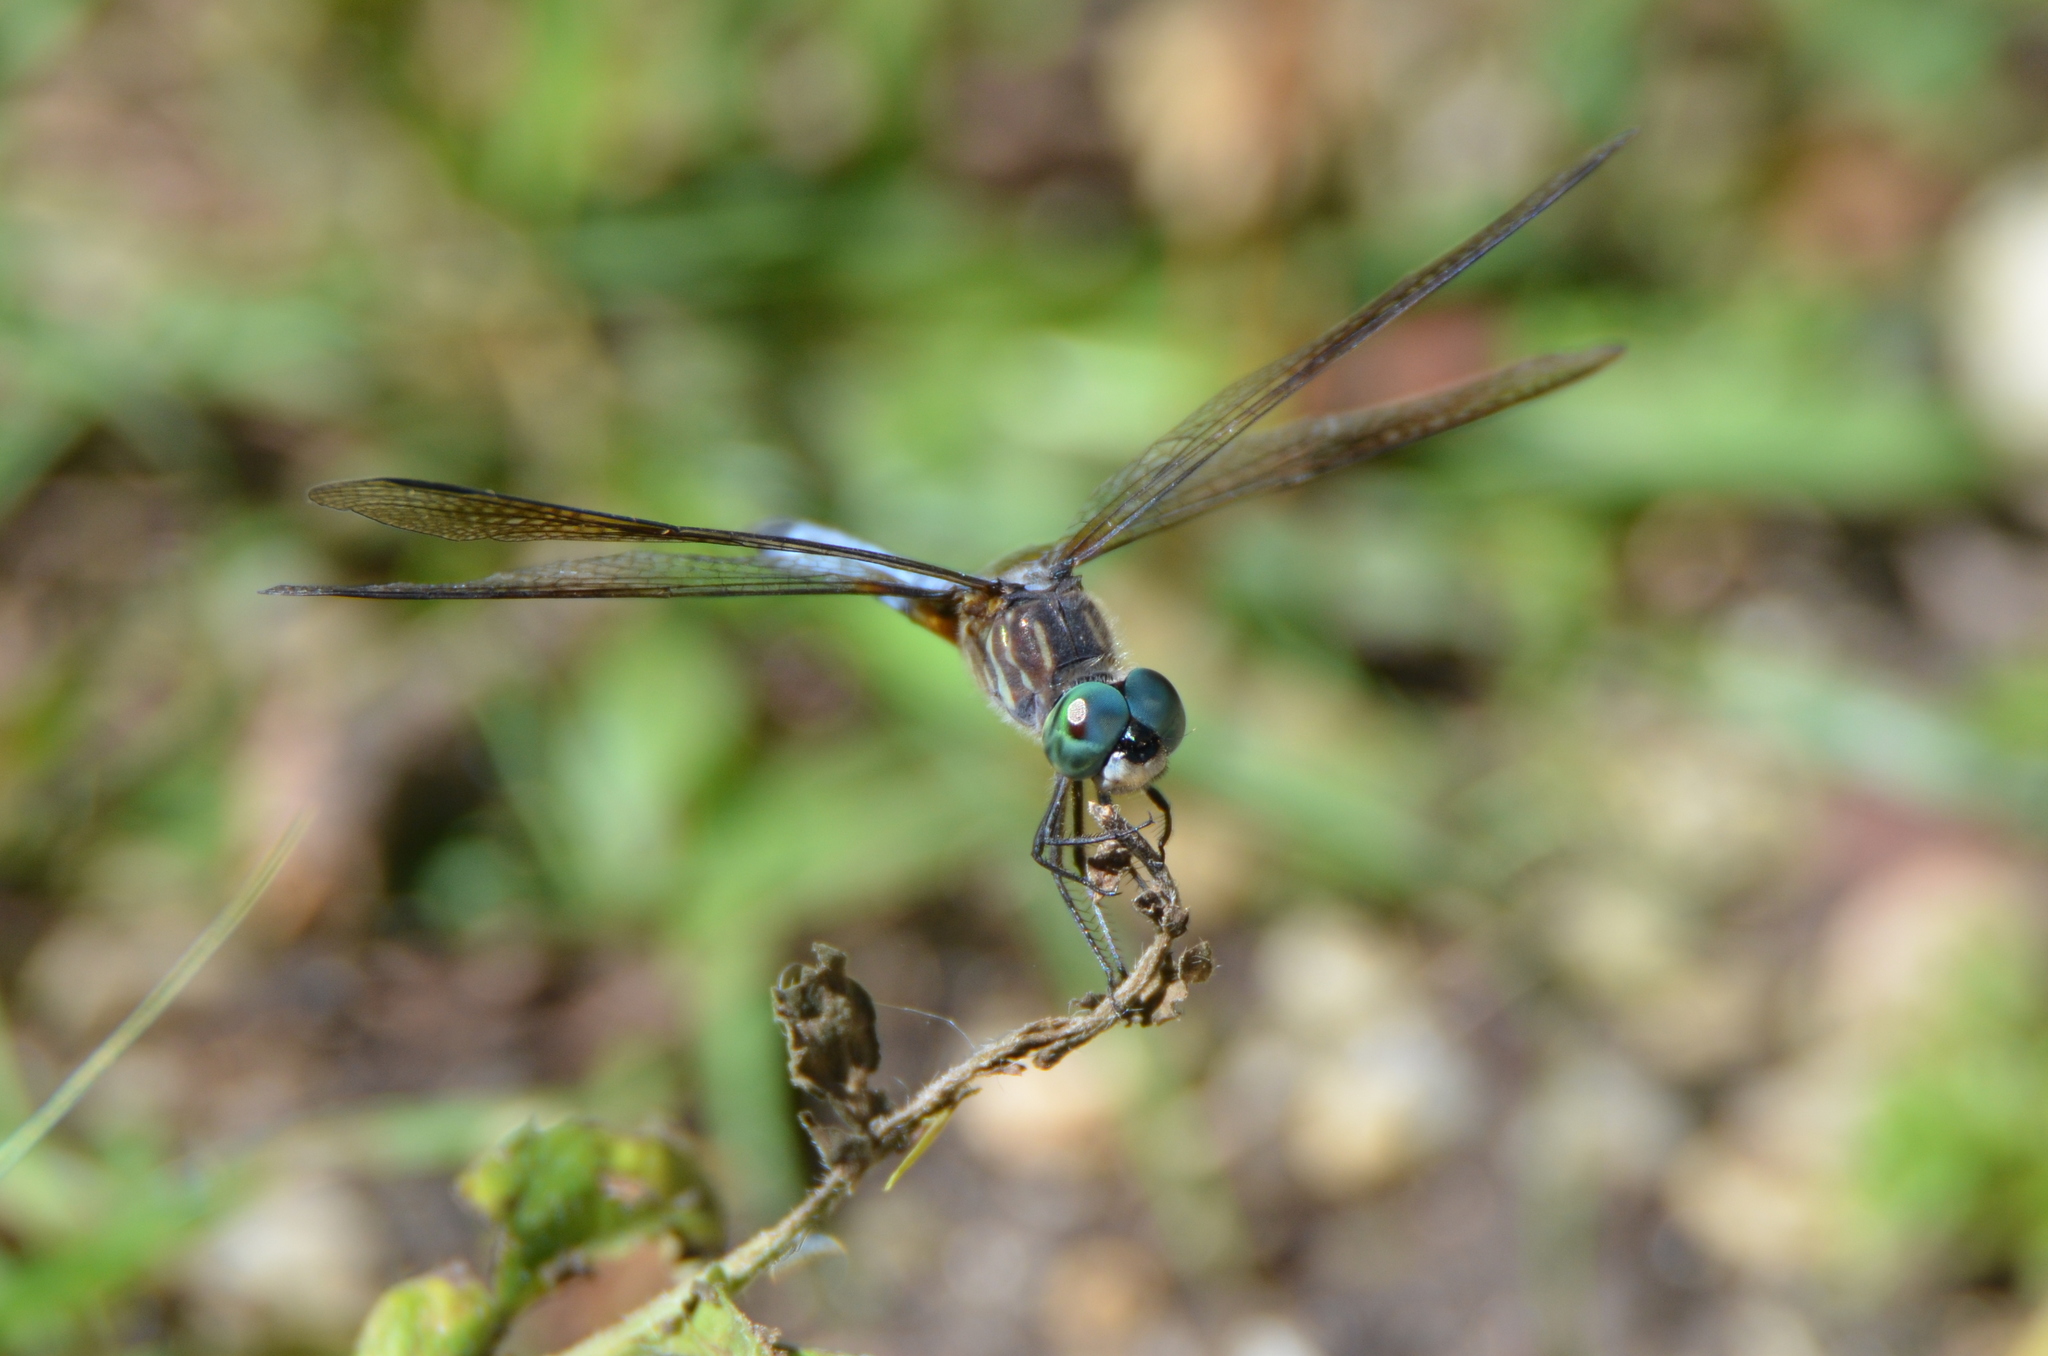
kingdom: Animalia
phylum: Arthropoda
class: Insecta
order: Odonata
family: Libellulidae
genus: Pachydiplax
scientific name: Pachydiplax longipennis
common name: Blue dasher
